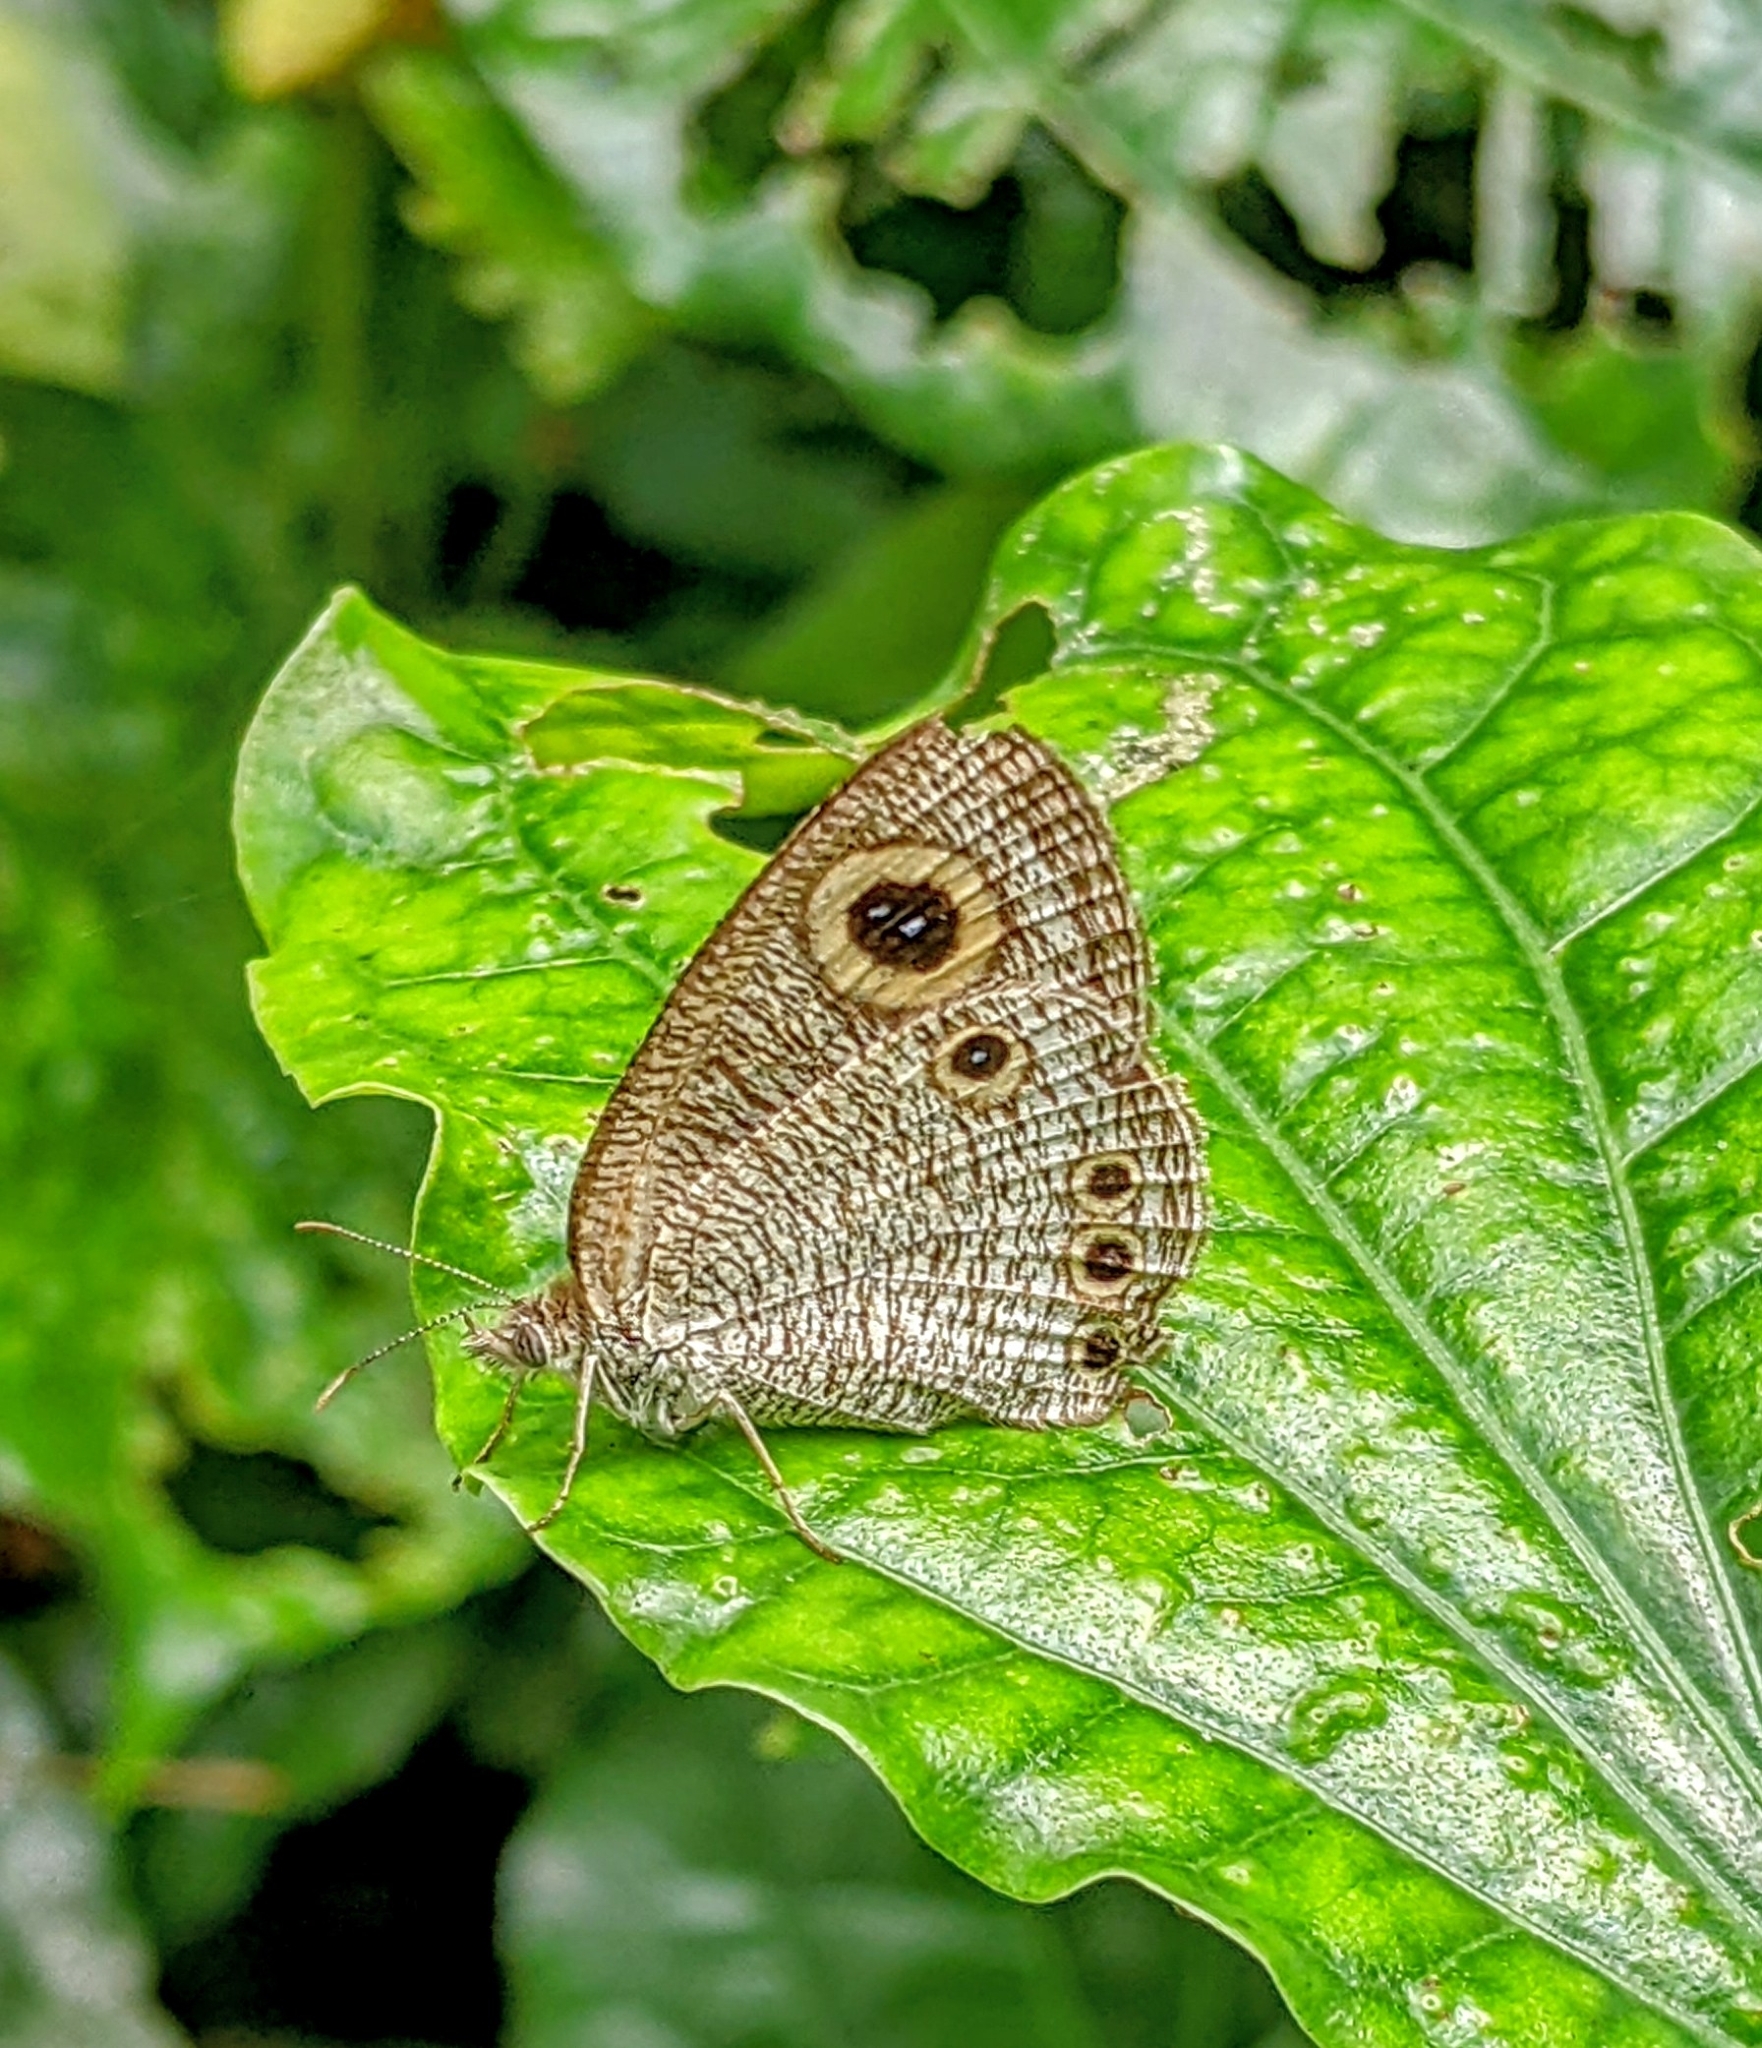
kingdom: Animalia
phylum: Arthropoda
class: Insecta
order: Lepidoptera
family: Nymphalidae
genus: Ypthima
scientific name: Ypthima huebneri
